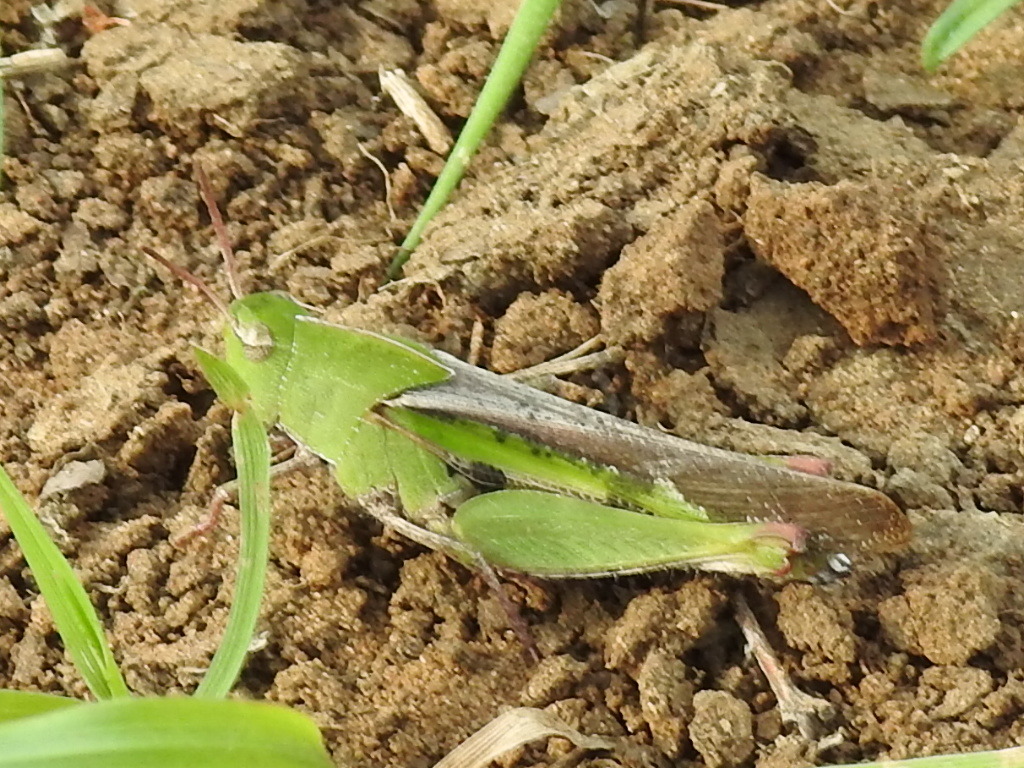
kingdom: Animalia
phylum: Arthropoda
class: Insecta
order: Orthoptera
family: Acrididae
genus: Chortophaga
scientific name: Chortophaga viridifasciata
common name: Green-striped grasshopper
